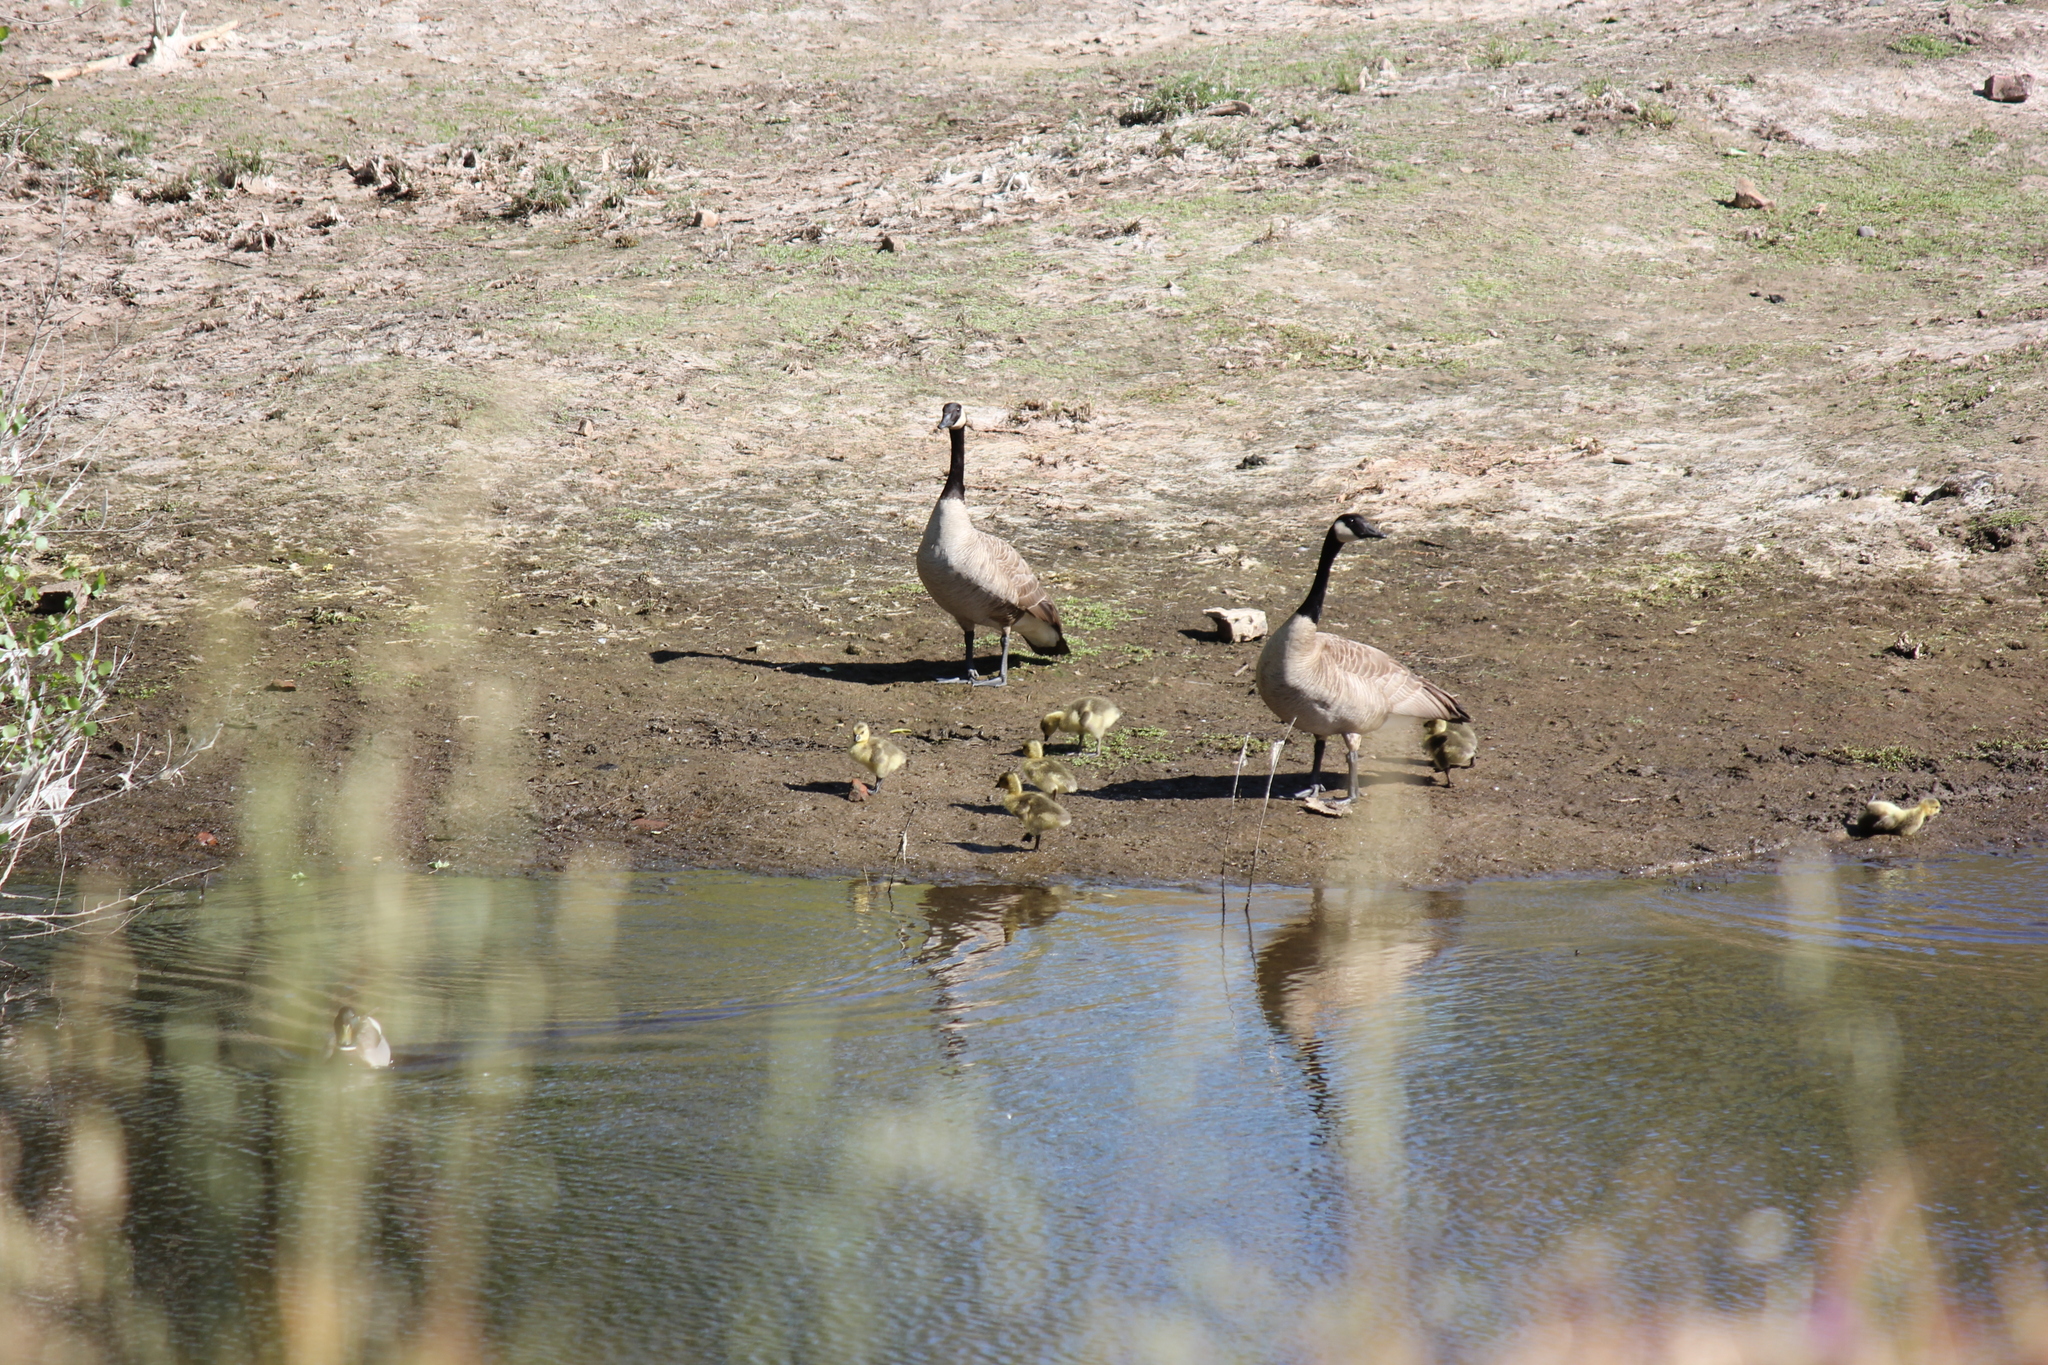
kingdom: Animalia
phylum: Chordata
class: Aves
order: Anseriformes
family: Anatidae
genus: Branta
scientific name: Branta canadensis
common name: Canada goose
